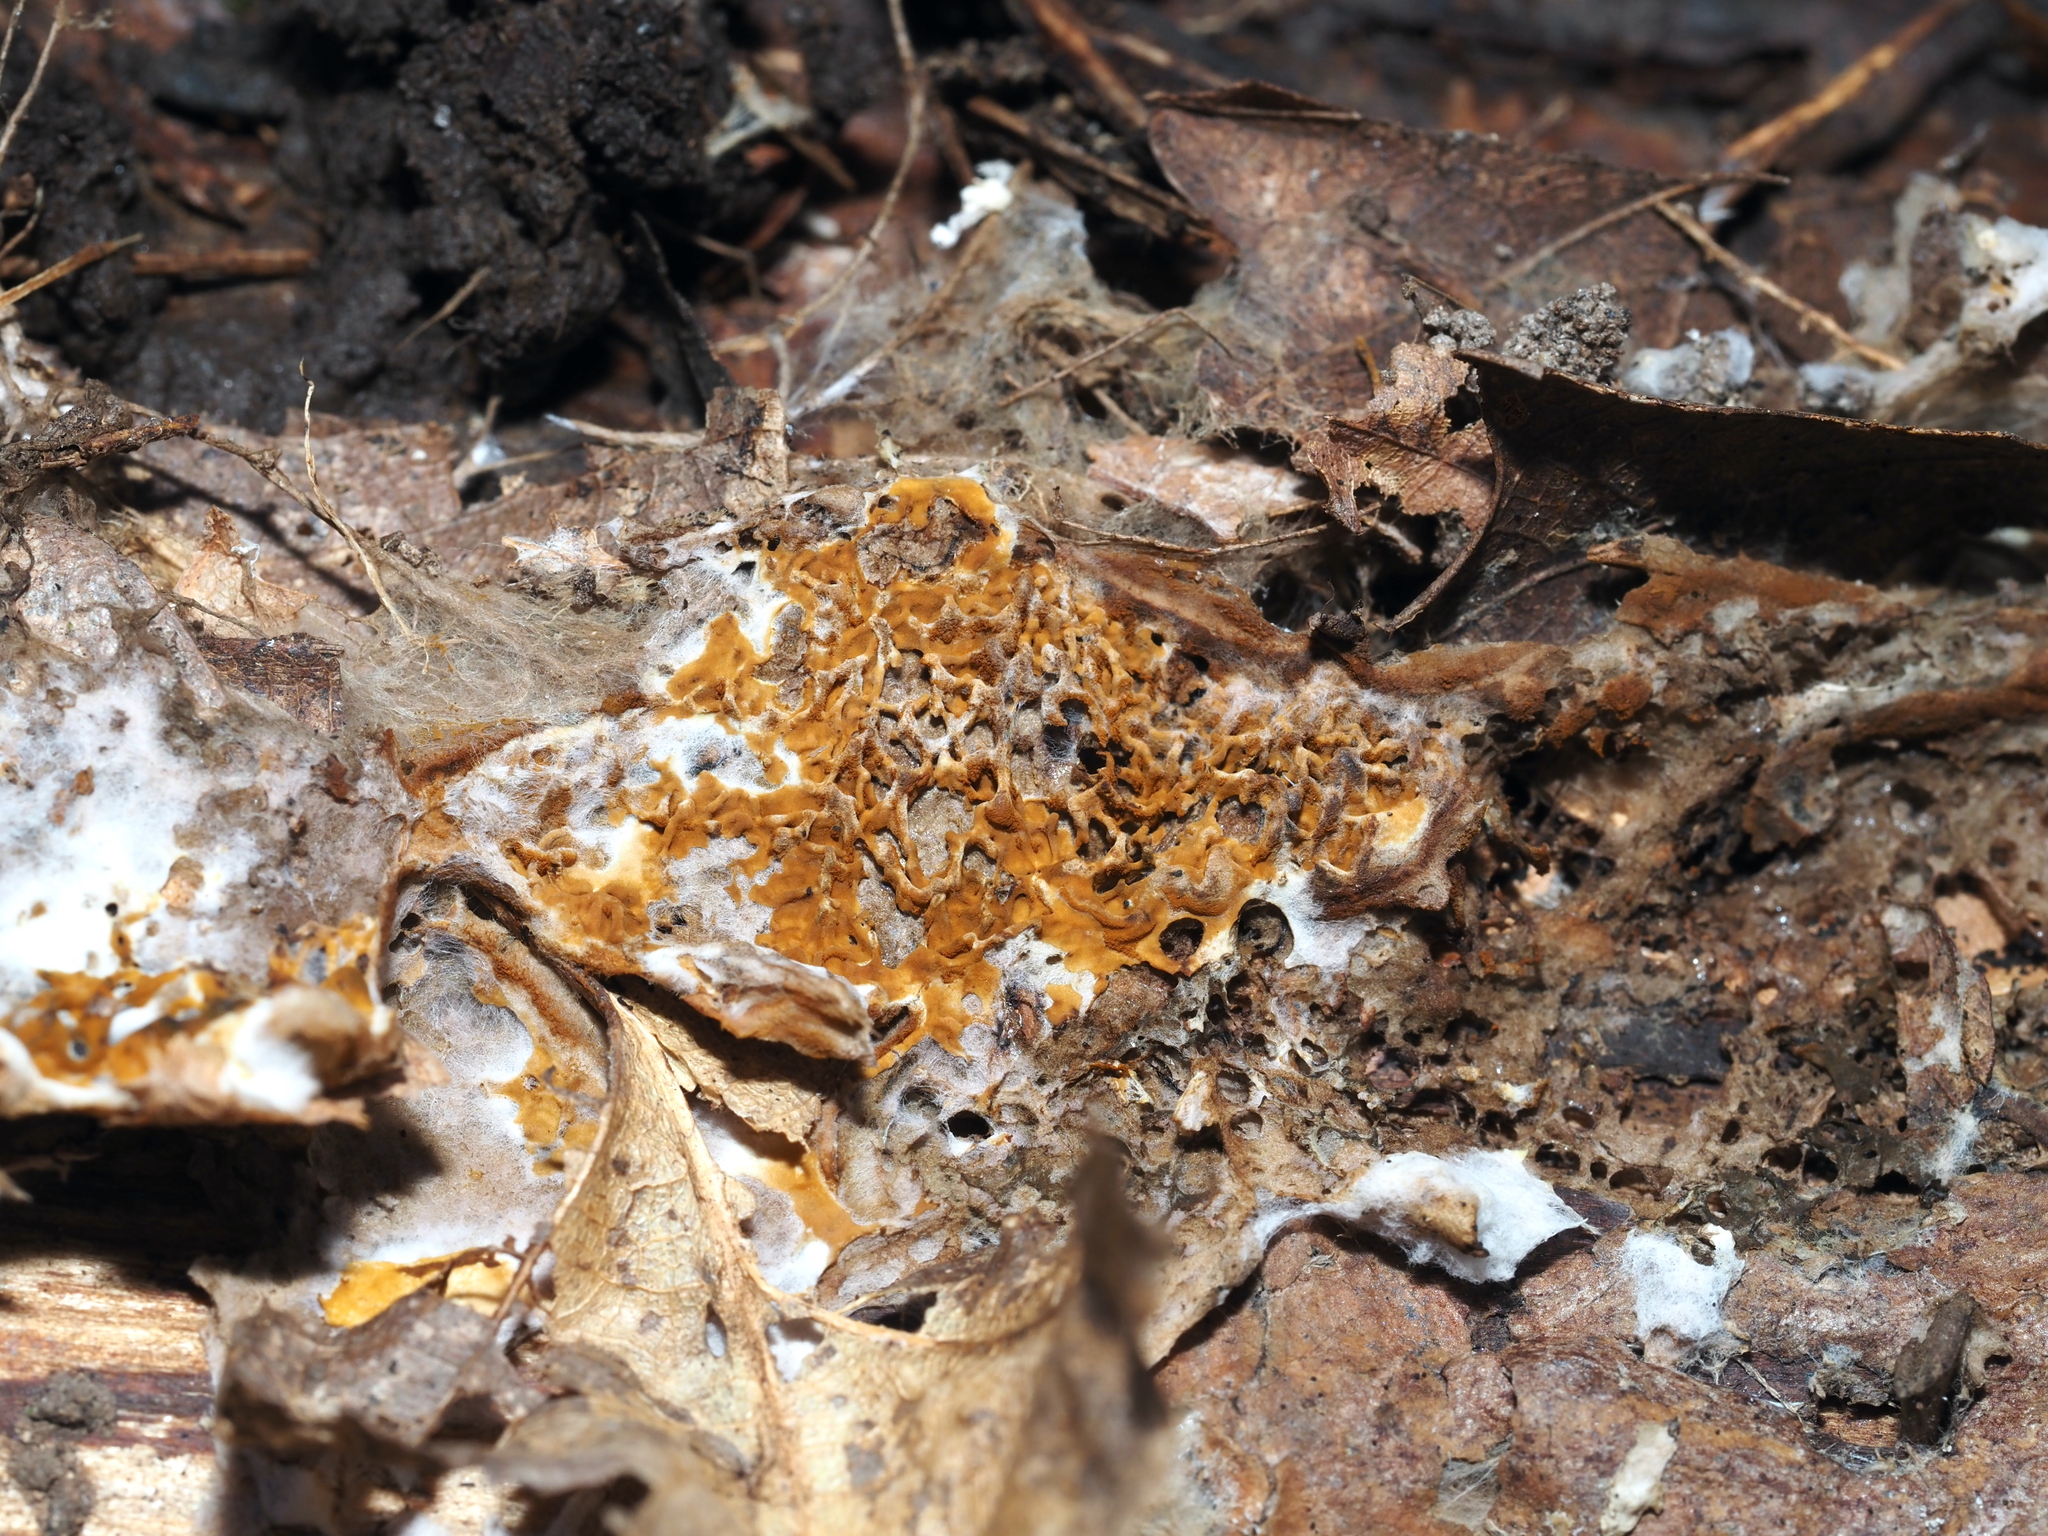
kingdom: Fungi
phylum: Basidiomycota
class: Agaricomycetes
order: Boletales
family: Serpulaceae
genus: Serpula
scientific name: Serpula himantioides
